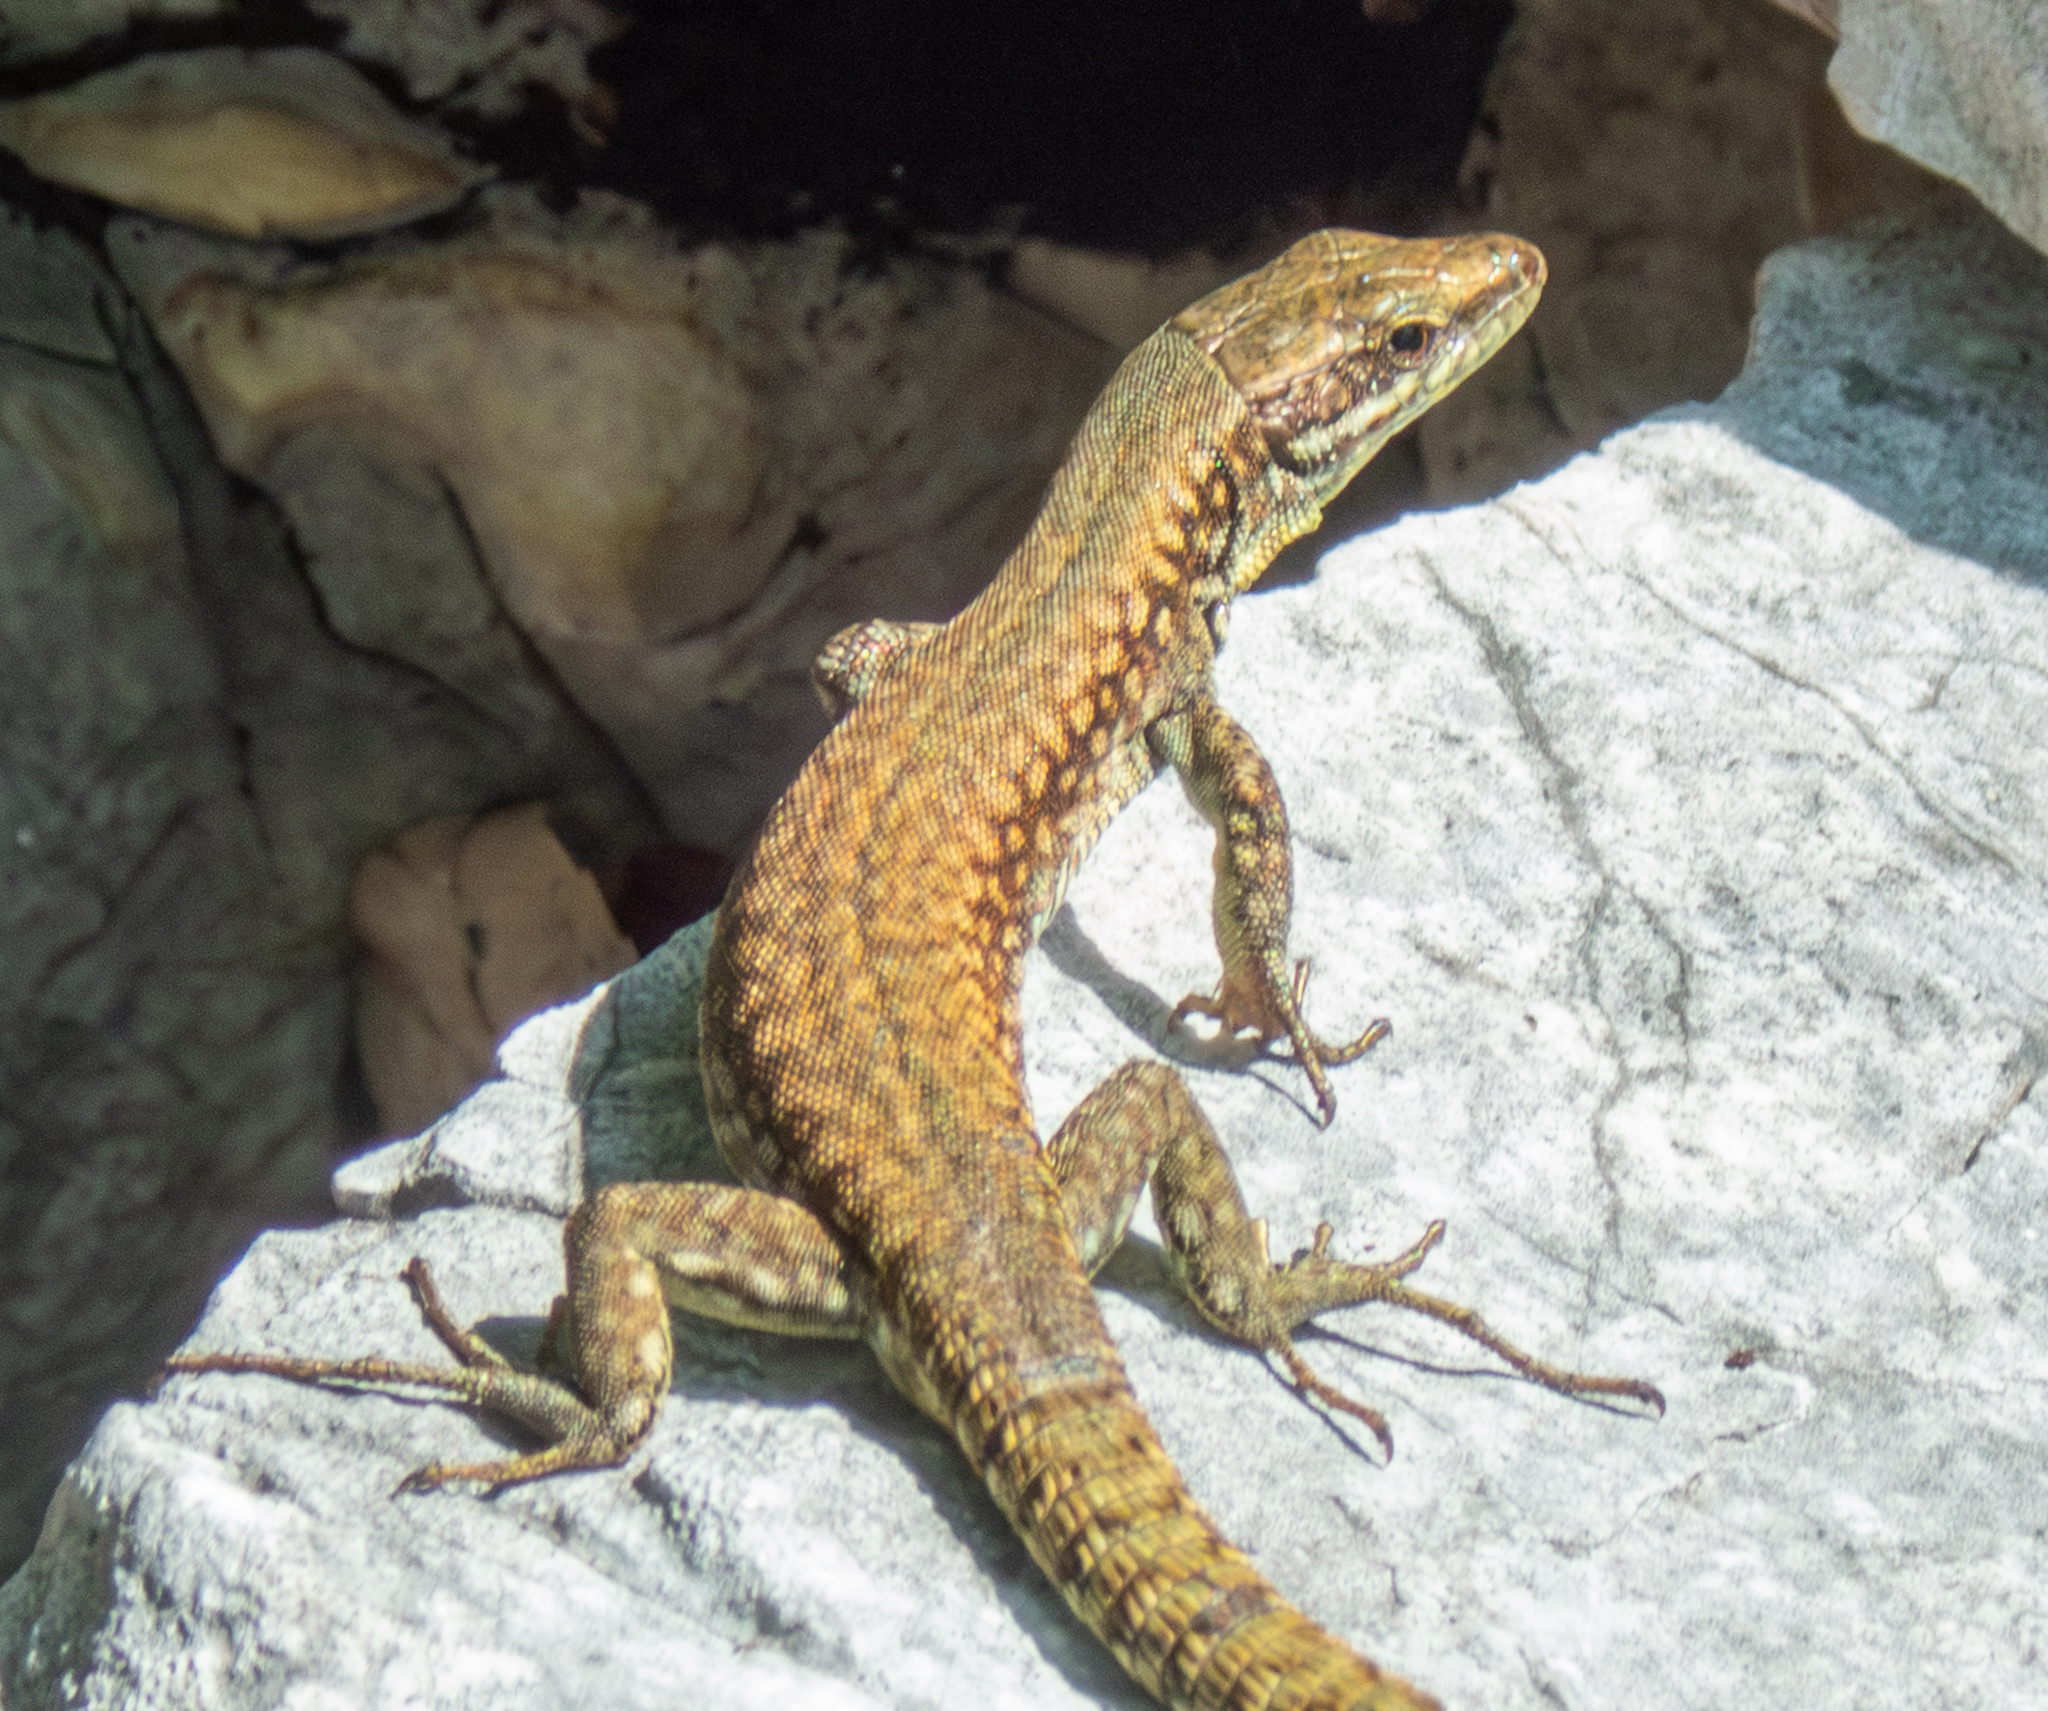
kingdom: Animalia
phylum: Chordata
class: Squamata
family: Lacertidae
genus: Podarcis
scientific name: Podarcis muralis
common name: Common wall lizard
